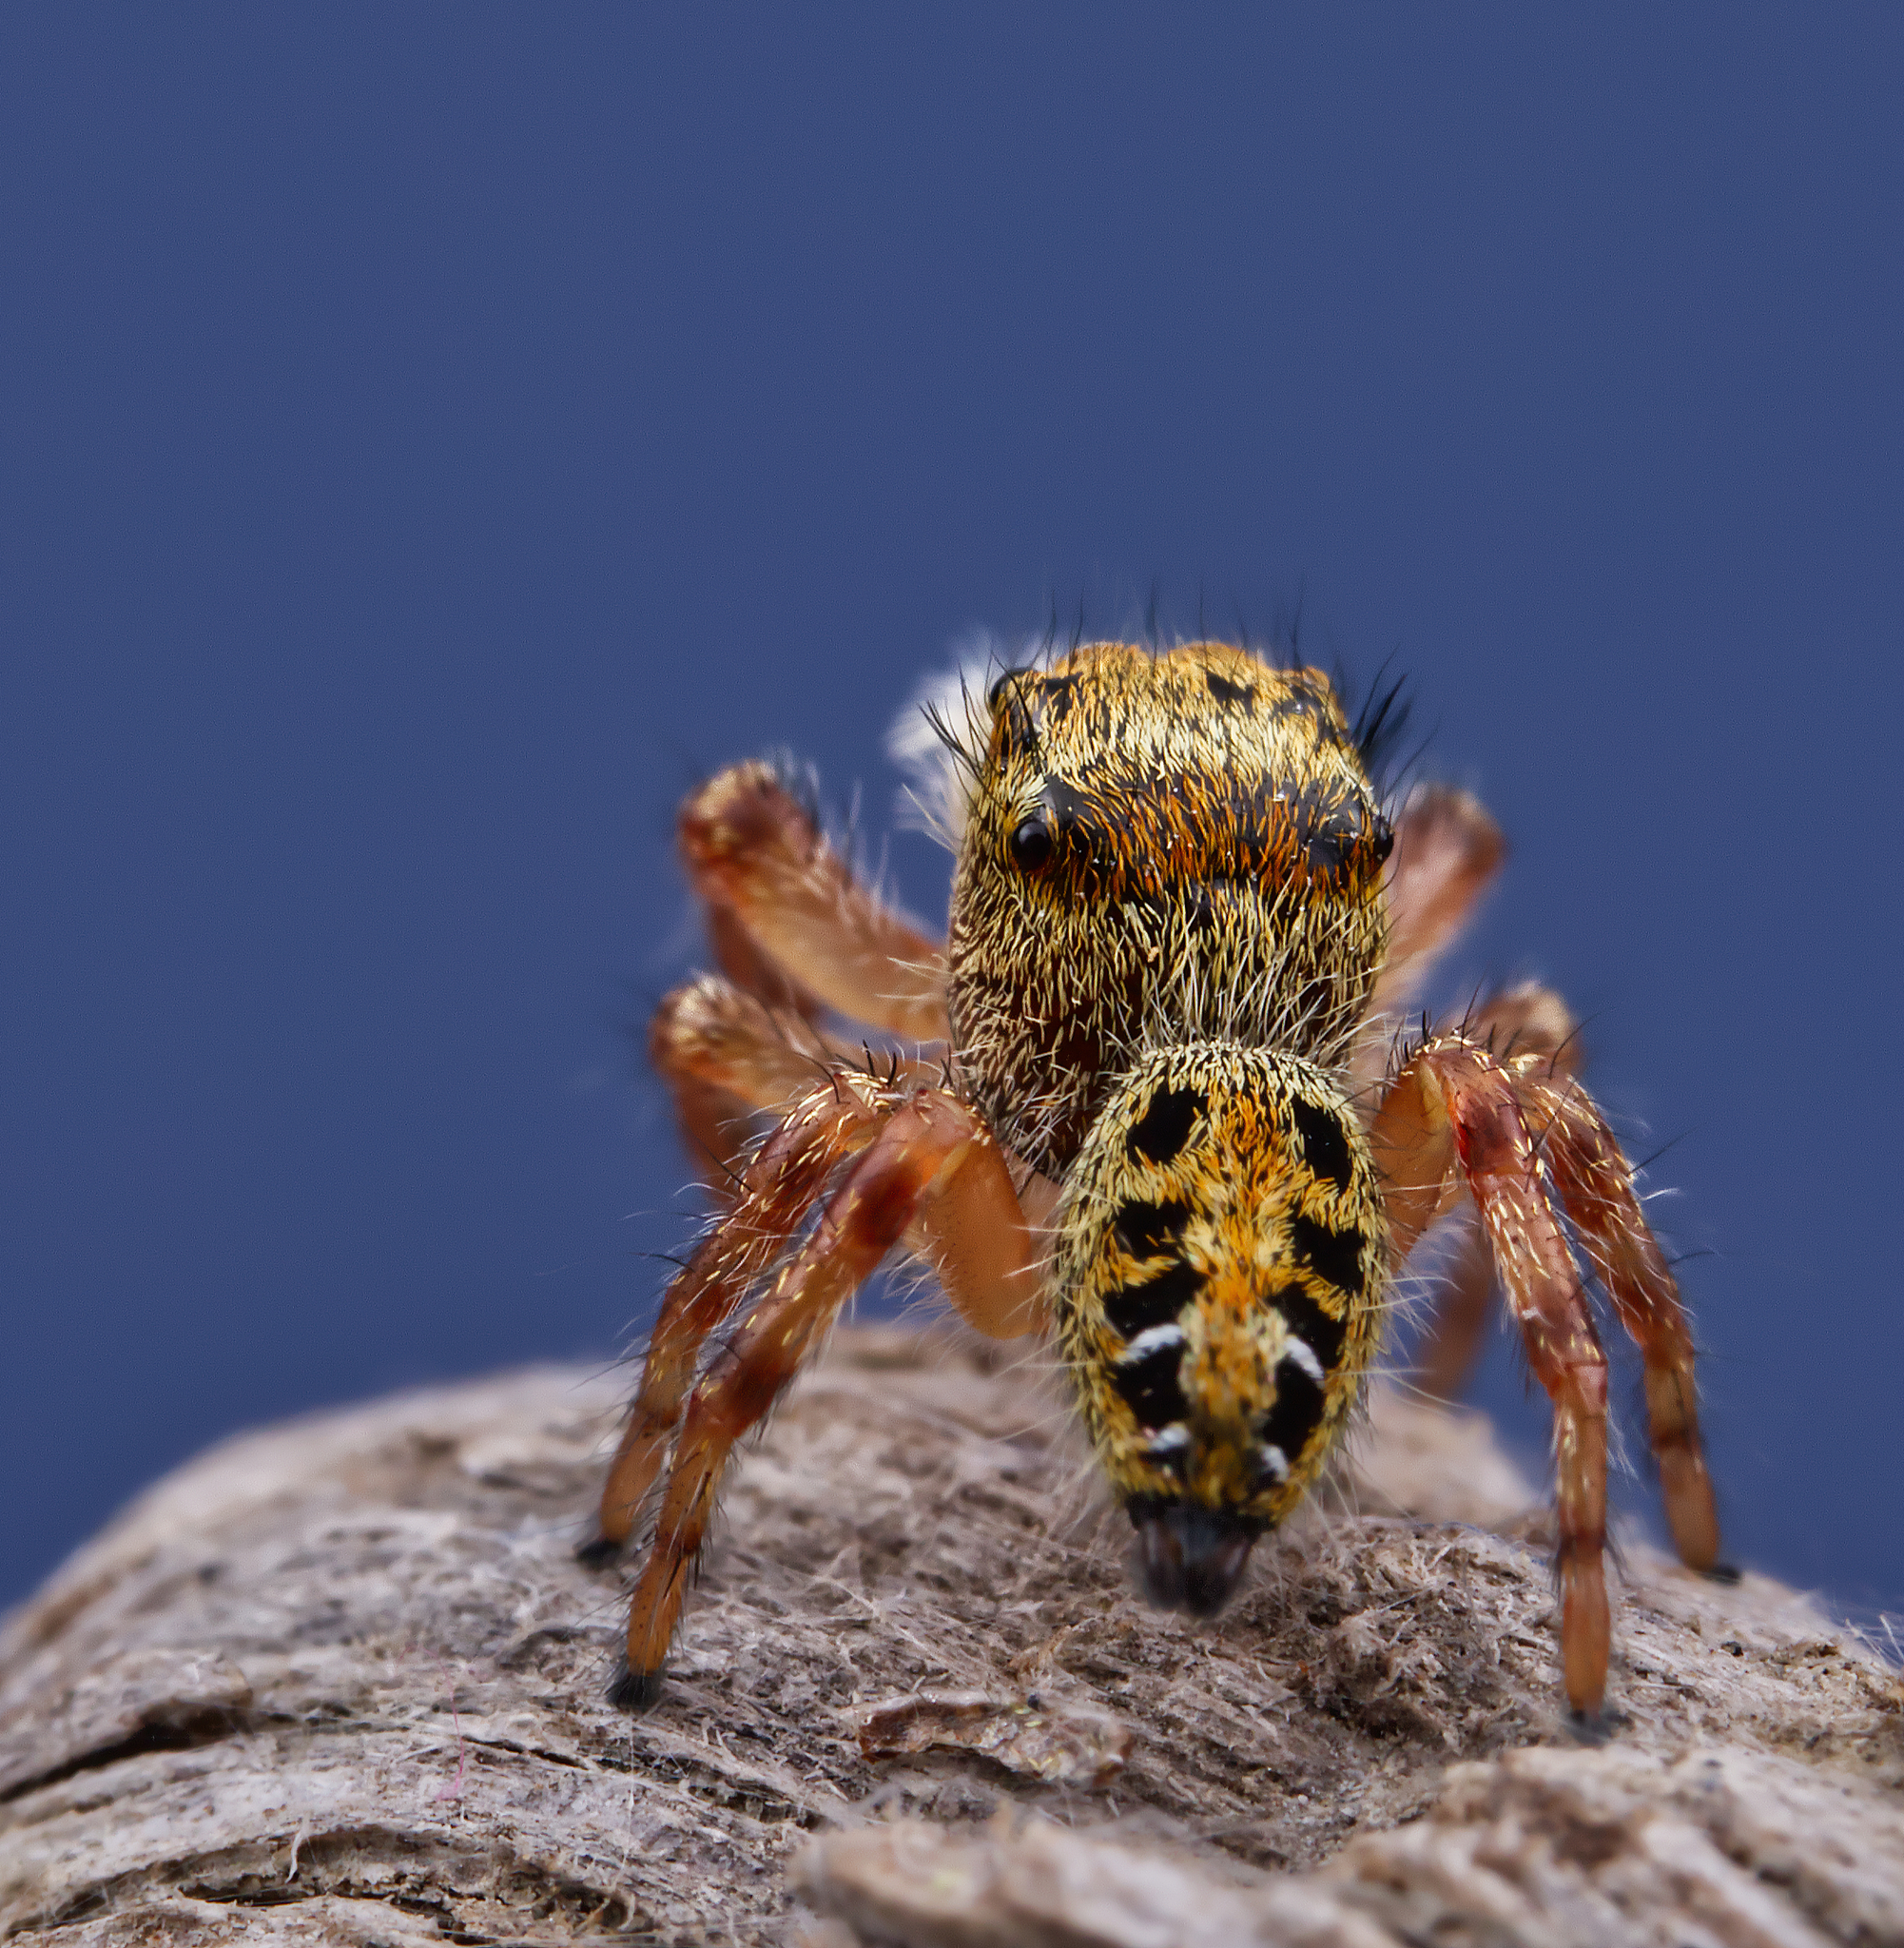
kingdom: Animalia
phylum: Arthropoda
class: Arachnida
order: Araneae
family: Salticidae
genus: Phidippus
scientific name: Phidippus princeps
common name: Grayish jumping spider
